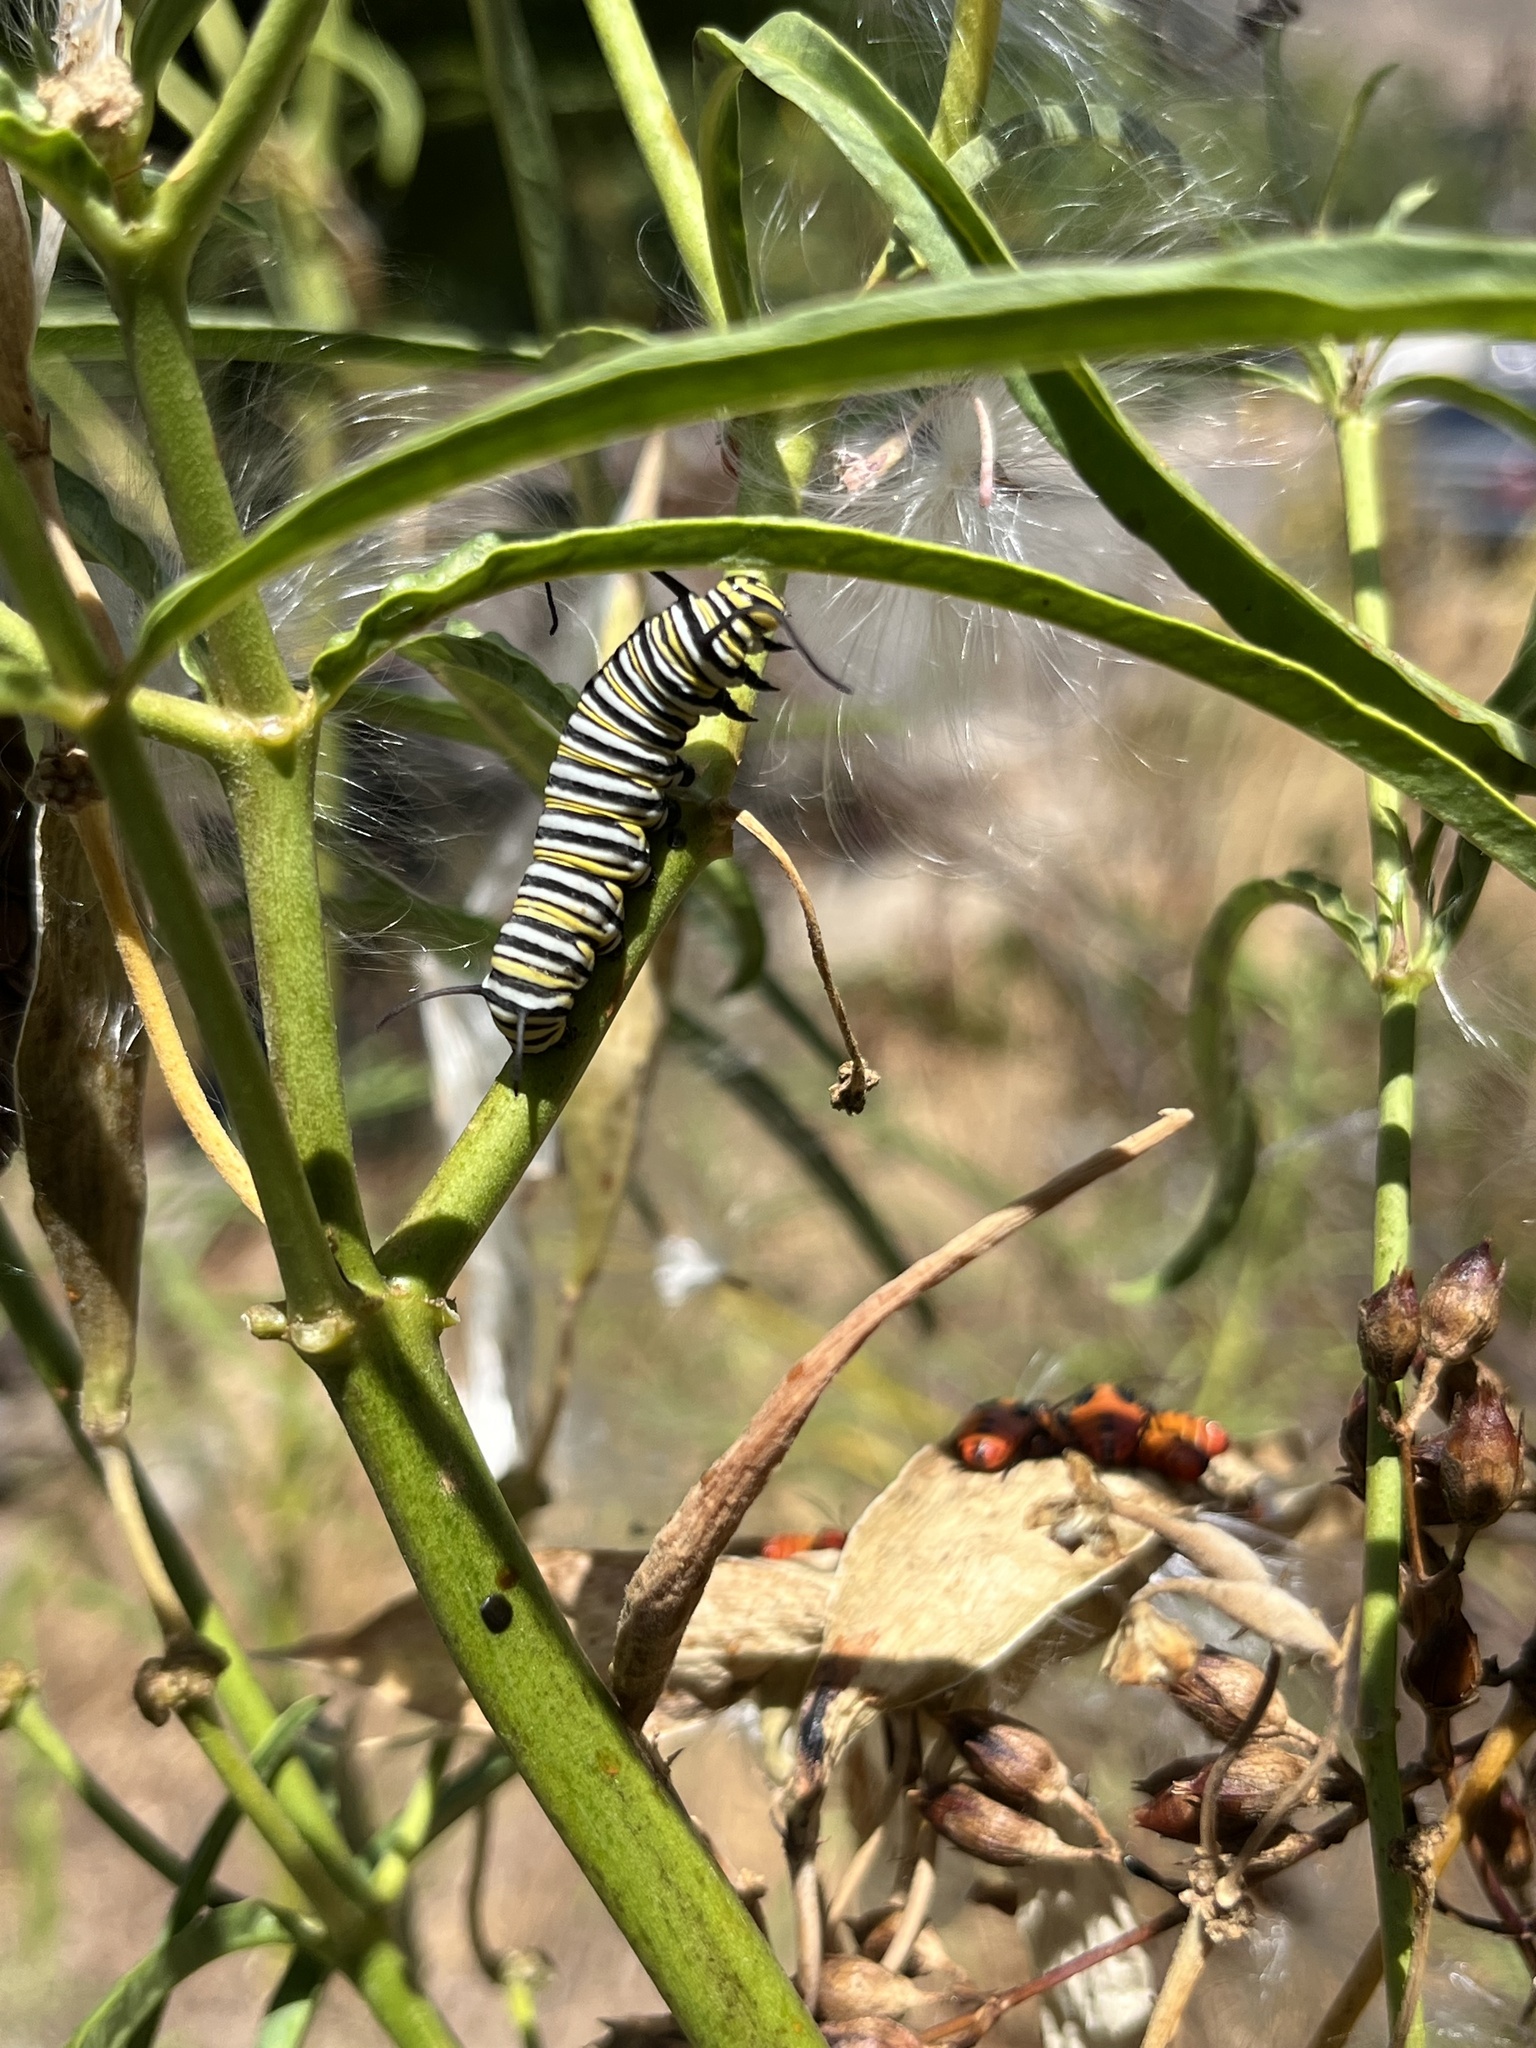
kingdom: Animalia
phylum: Arthropoda
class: Insecta
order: Lepidoptera
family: Nymphalidae
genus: Danaus
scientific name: Danaus plexippus
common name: Monarch
